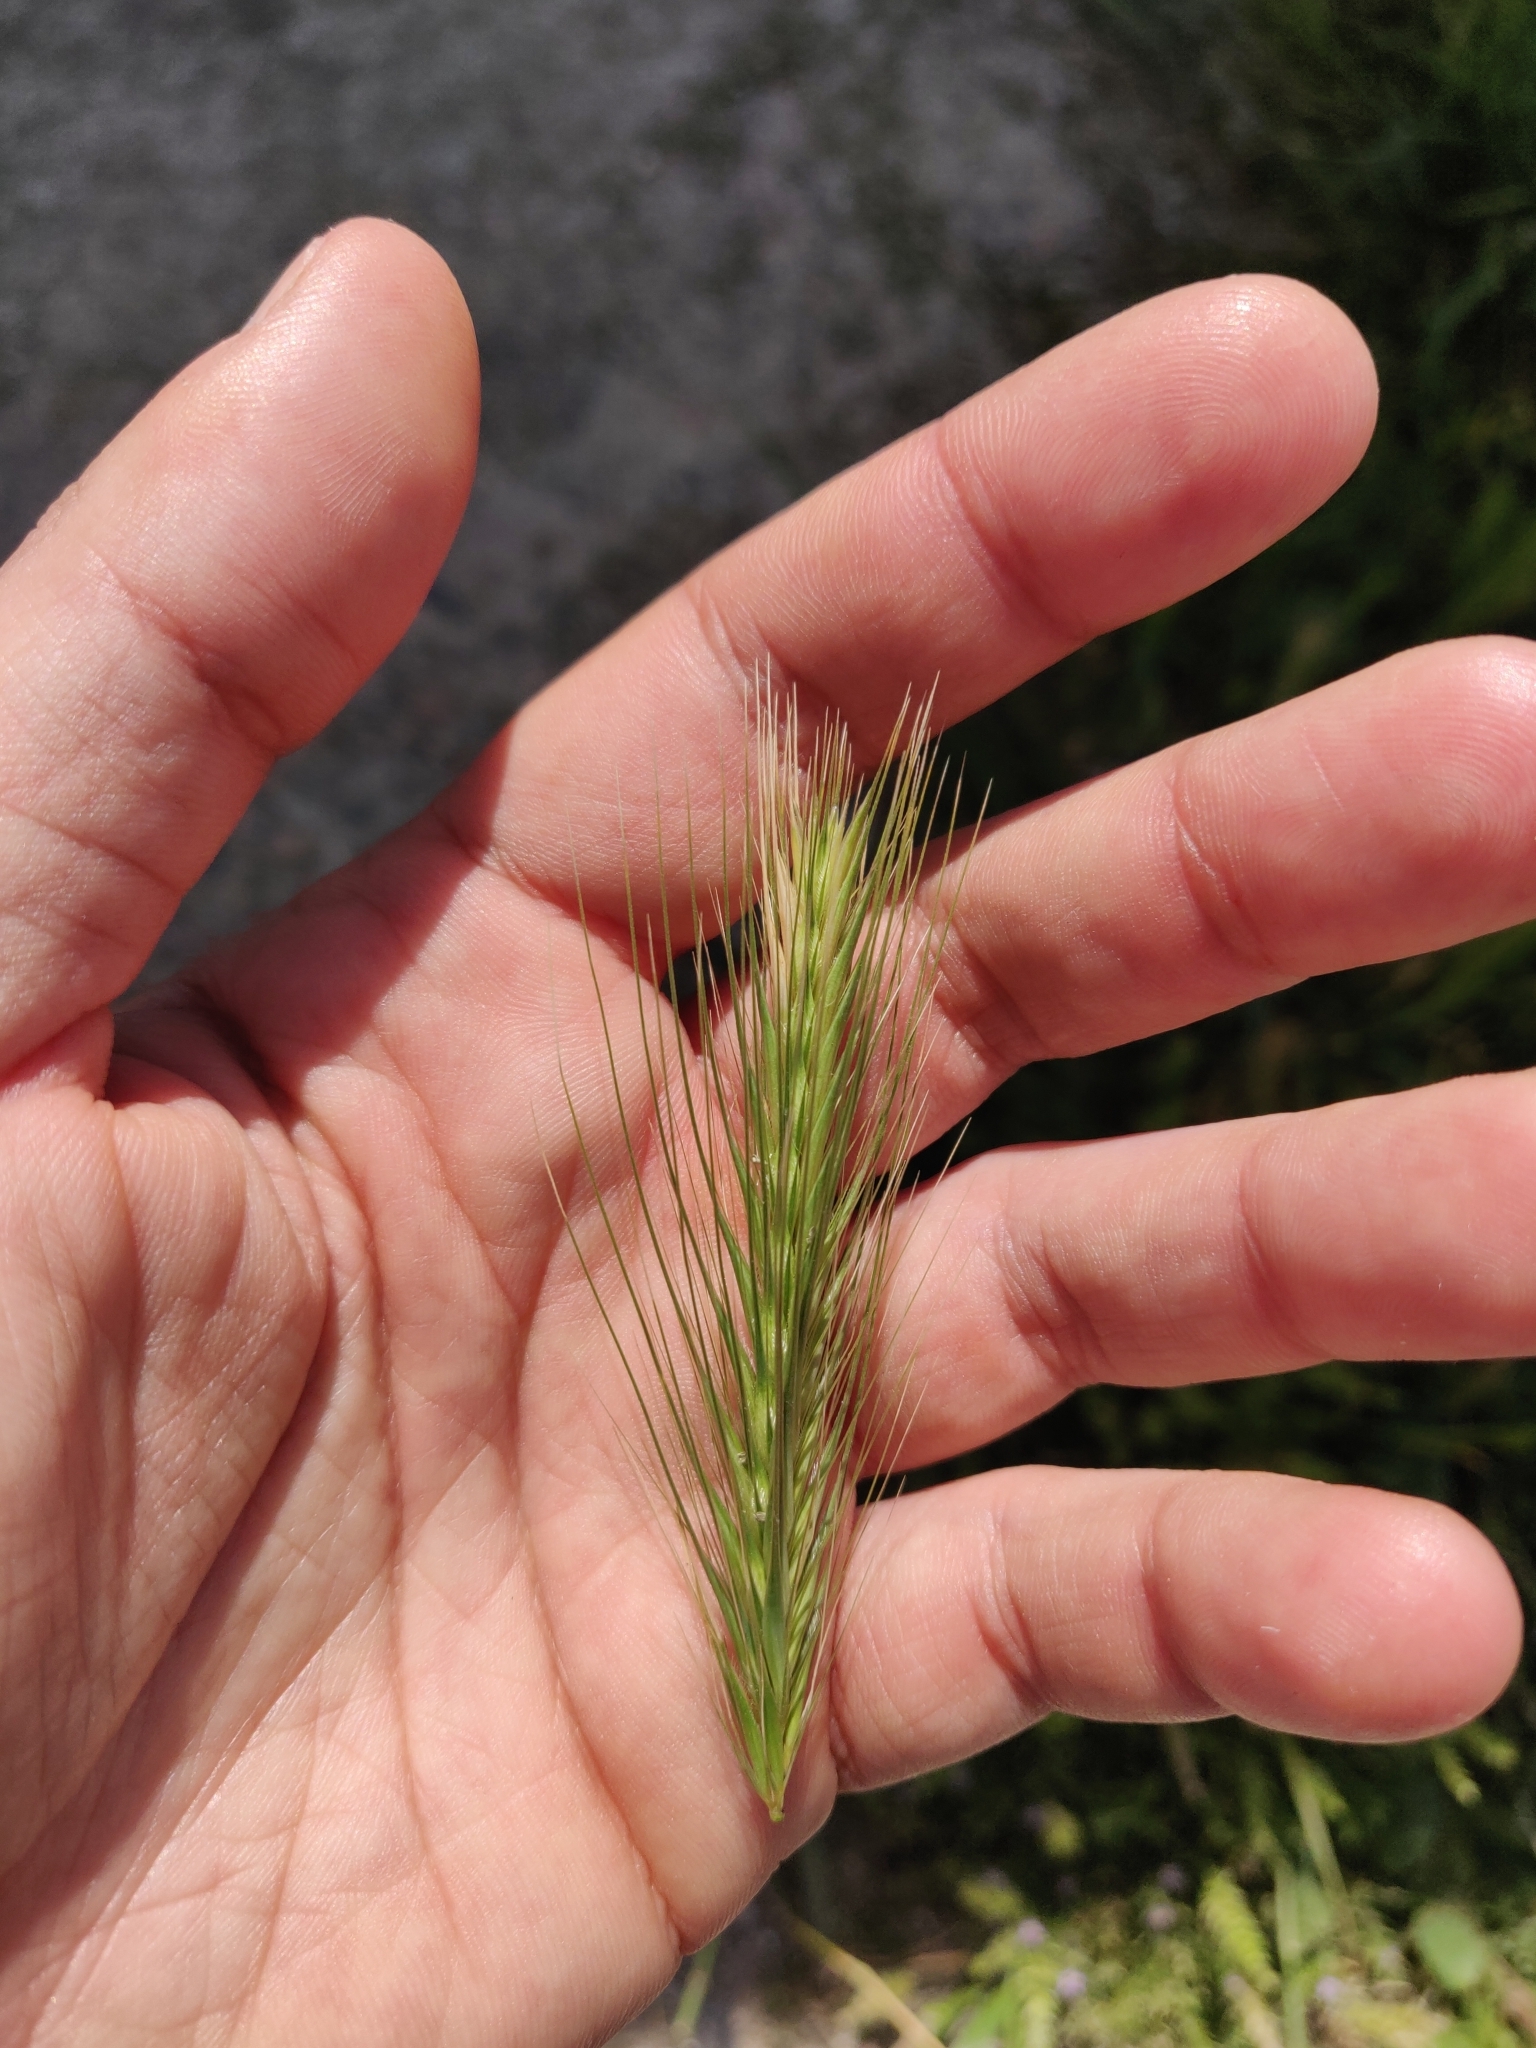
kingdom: Plantae
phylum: Tracheophyta
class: Liliopsida
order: Poales
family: Poaceae
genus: Hordeum
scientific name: Hordeum murinum
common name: Wall barley
